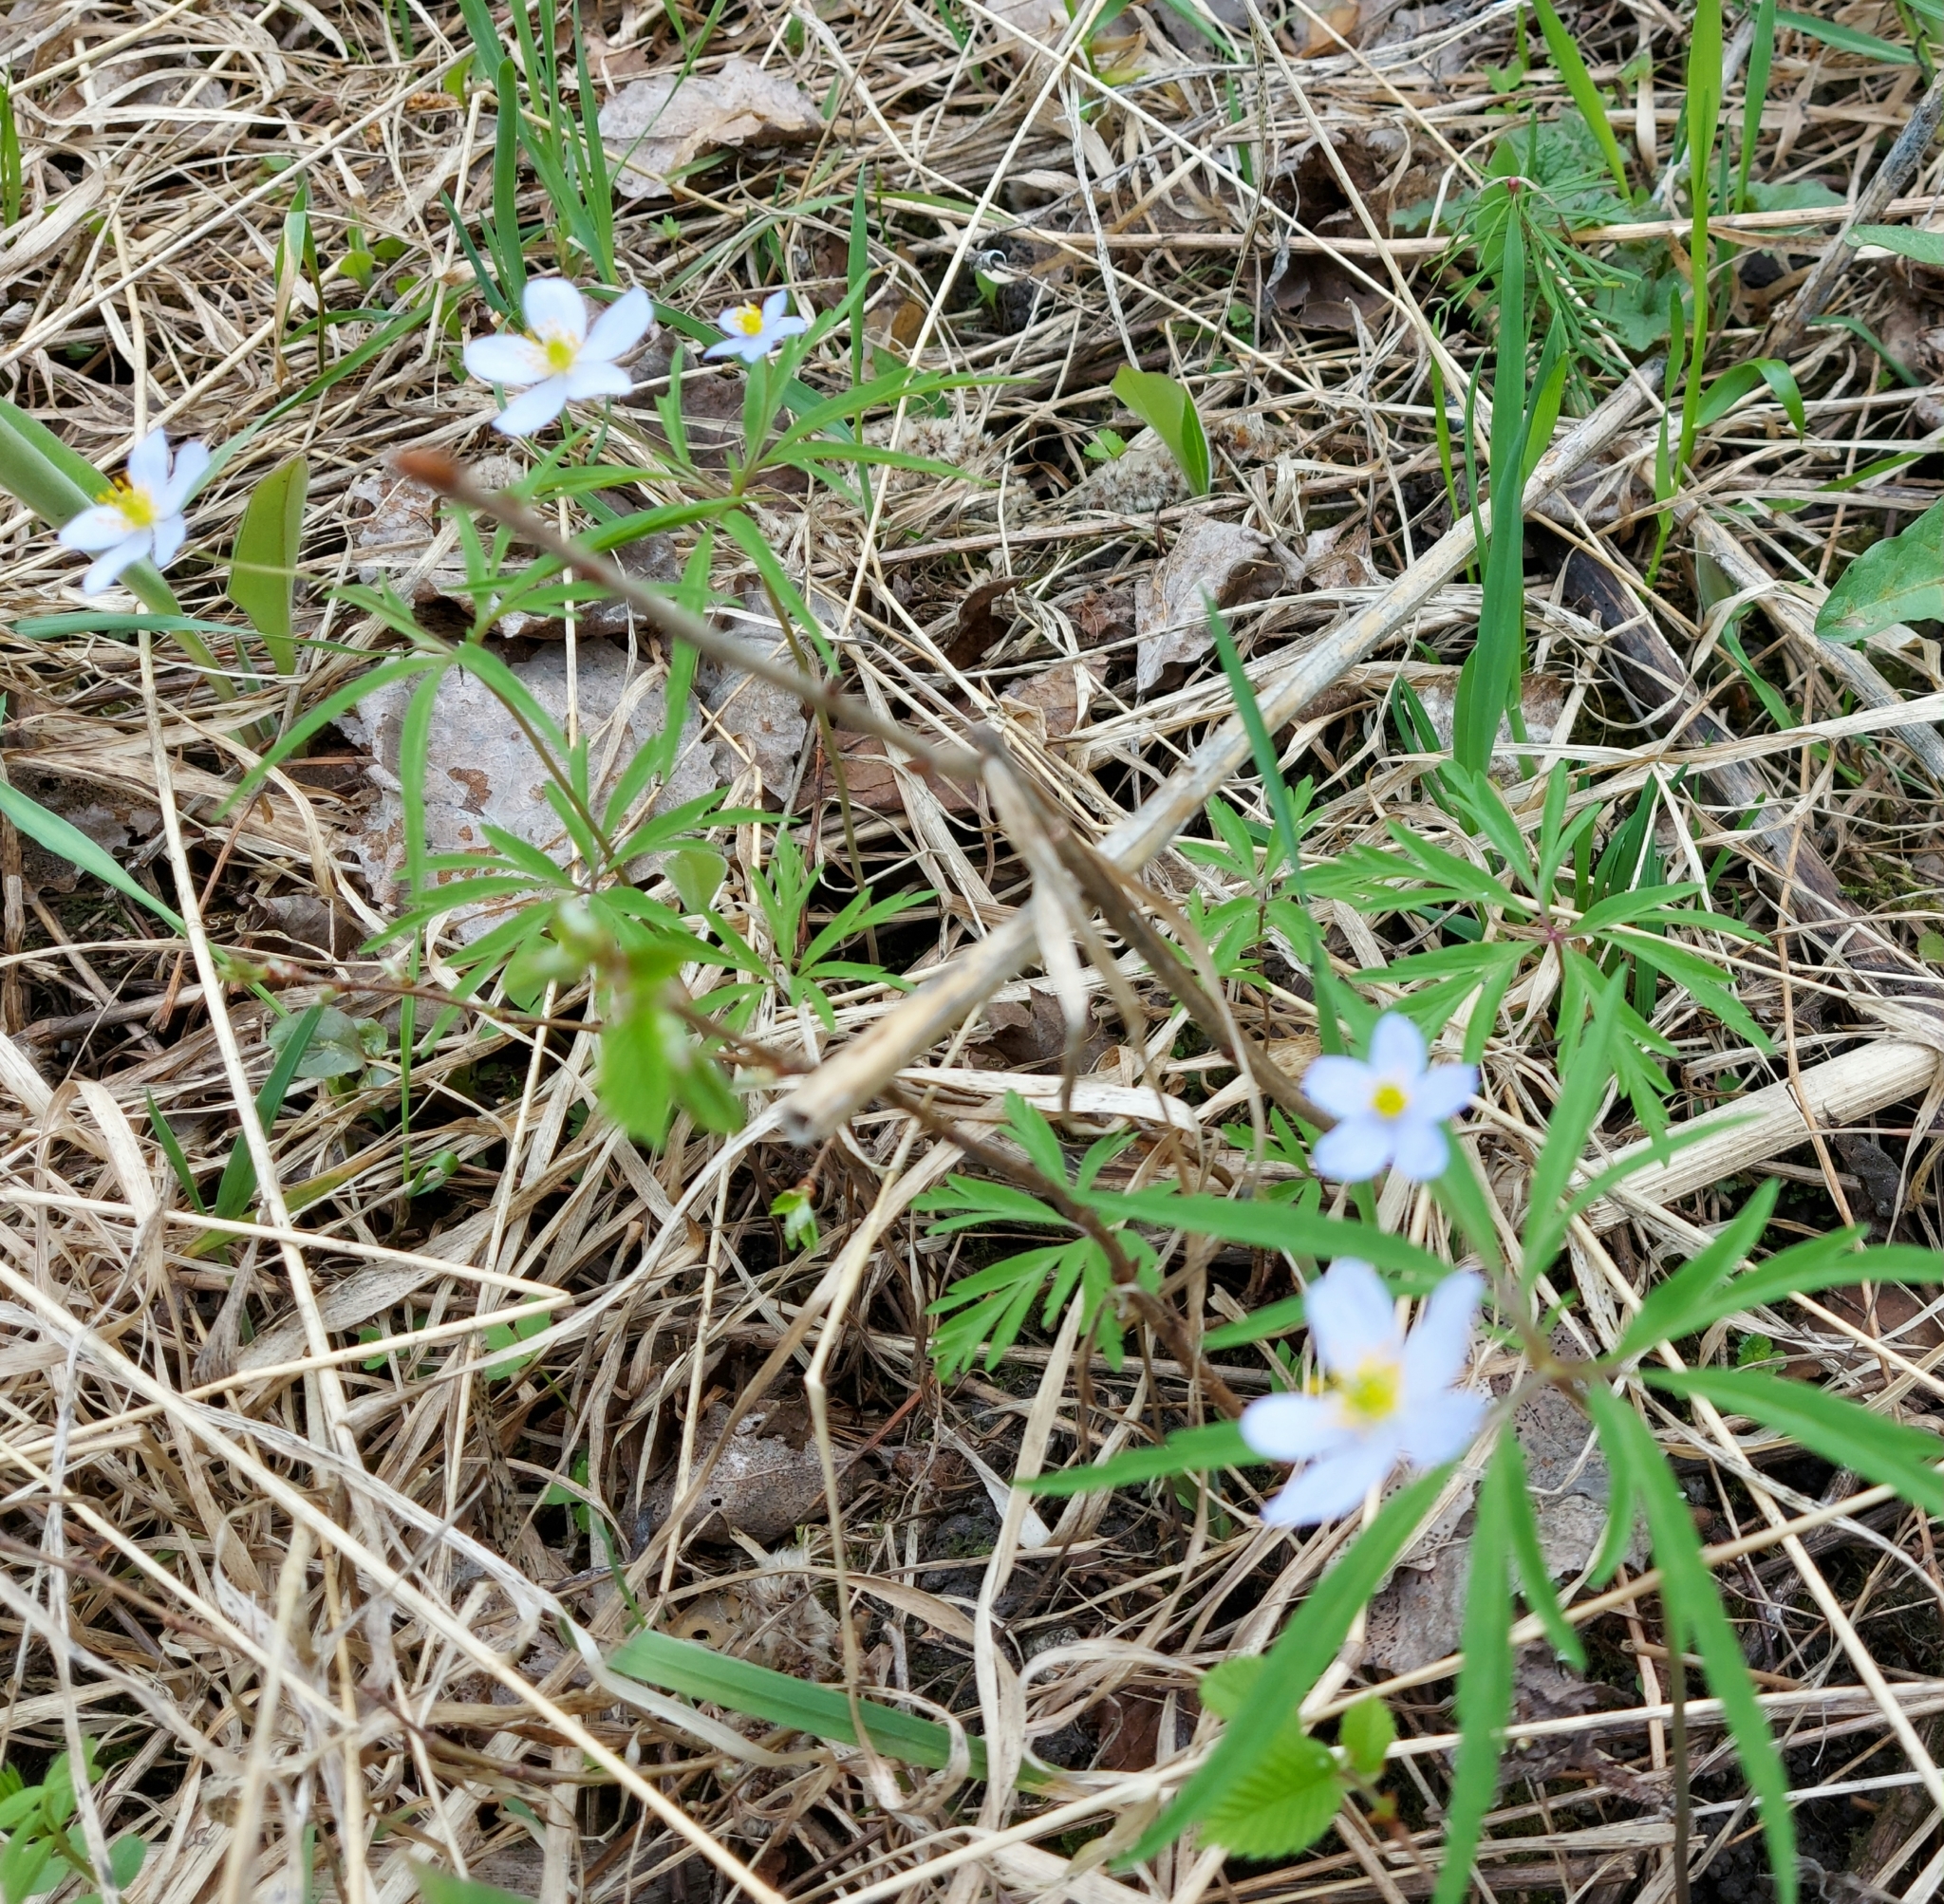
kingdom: Plantae
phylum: Tracheophyta
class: Magnoliopsida
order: Ranunculales
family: Ranunculaceae
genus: Anemone
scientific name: Anemone caerulea
